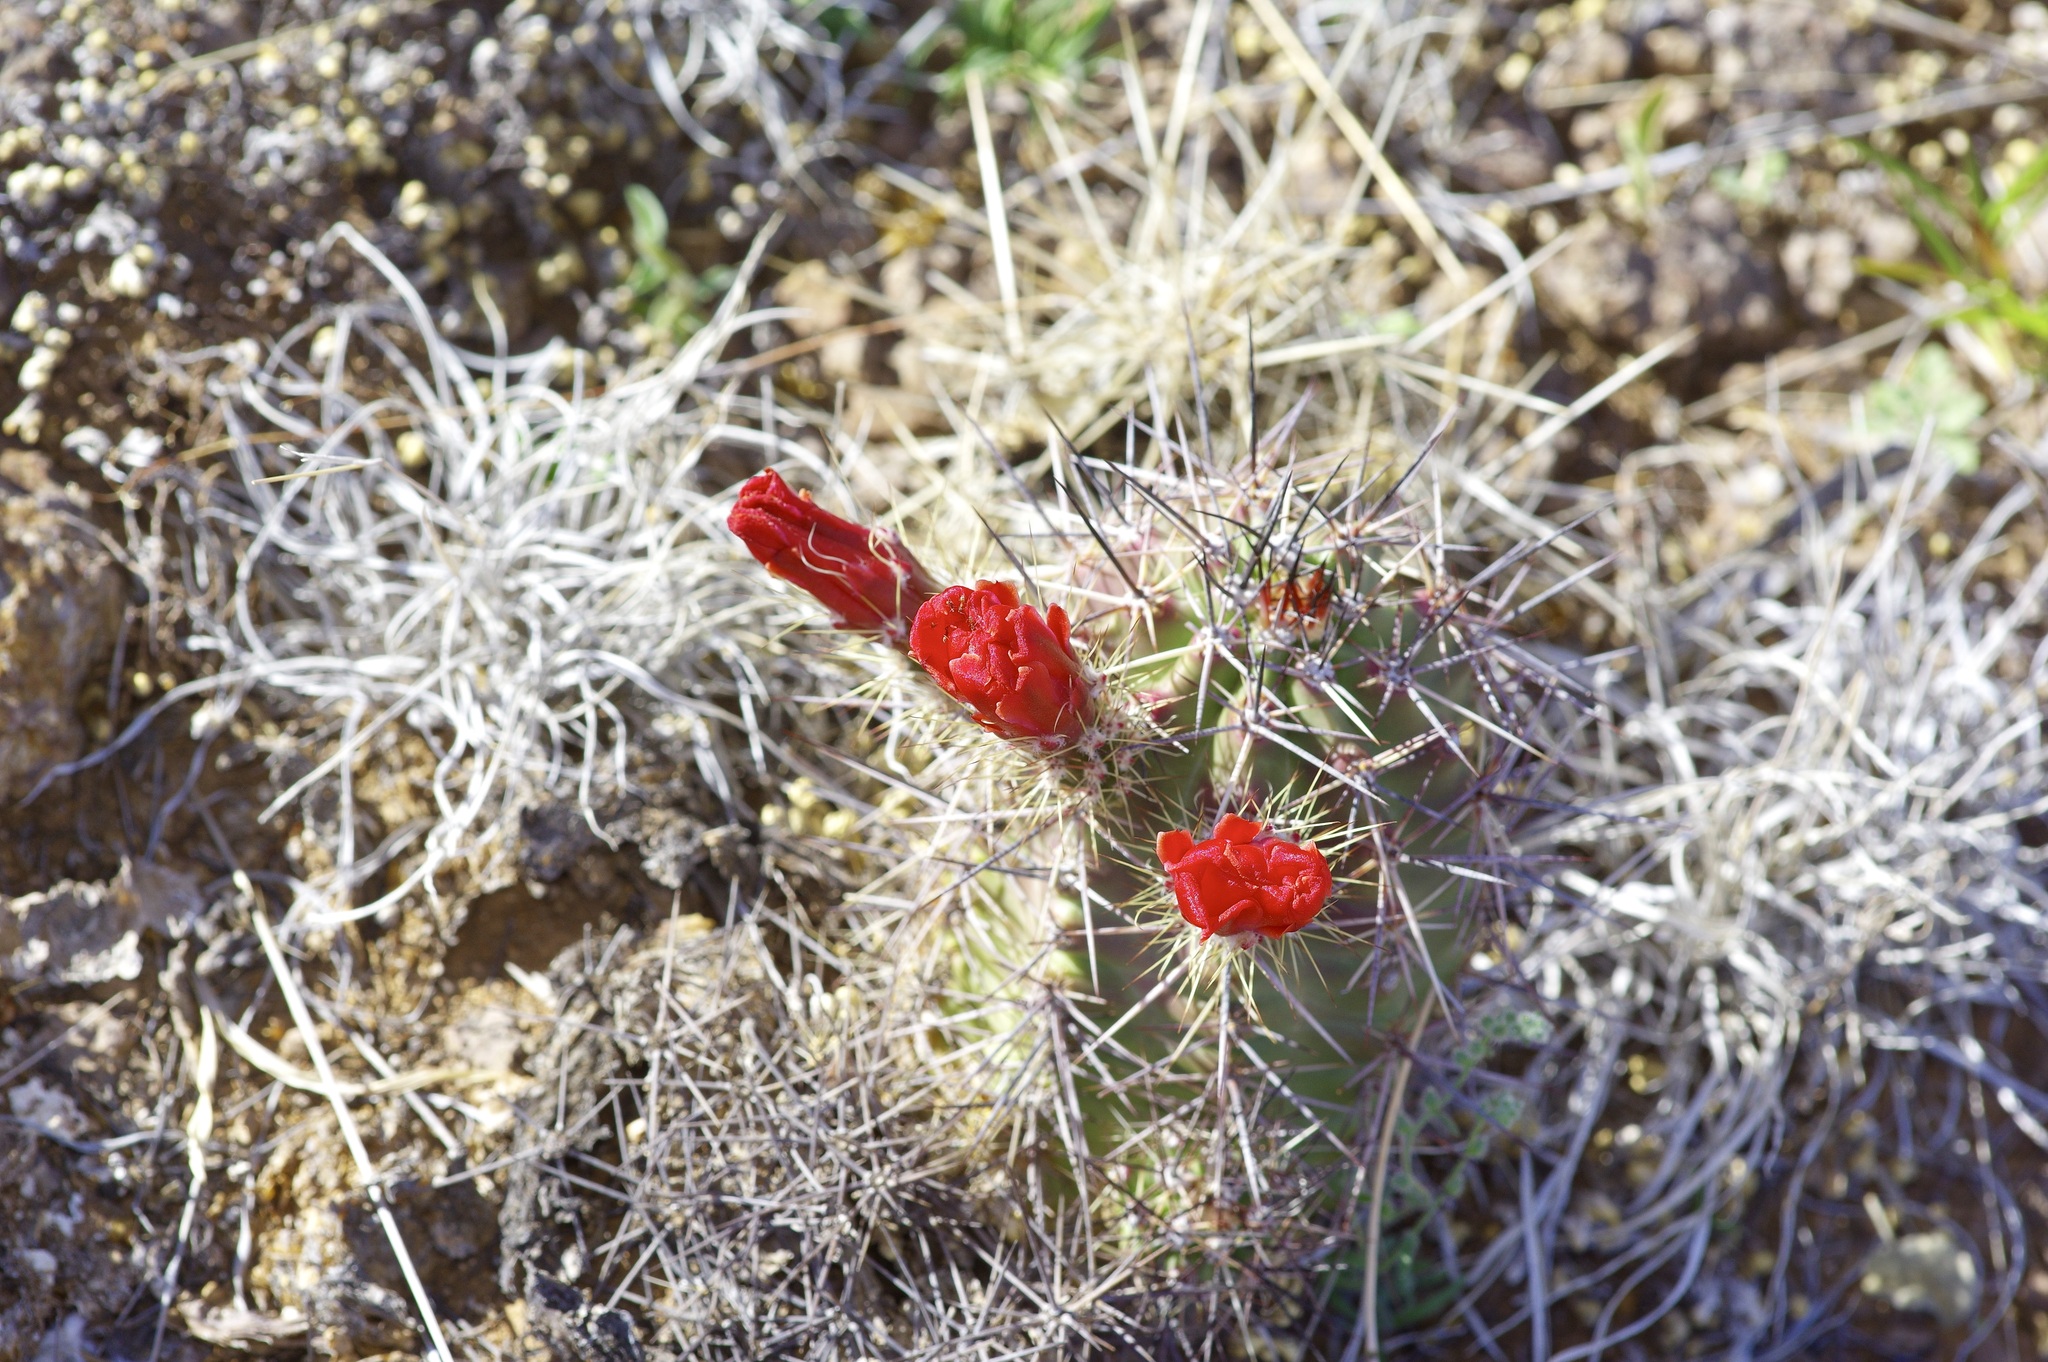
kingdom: Plantae
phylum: Tracheophyta
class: Magnoliopsida
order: Caryophyllales
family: Cactaceae
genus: Echinocereus
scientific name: Echinocereus coccineus
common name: Scarlet hedgehog cactus
